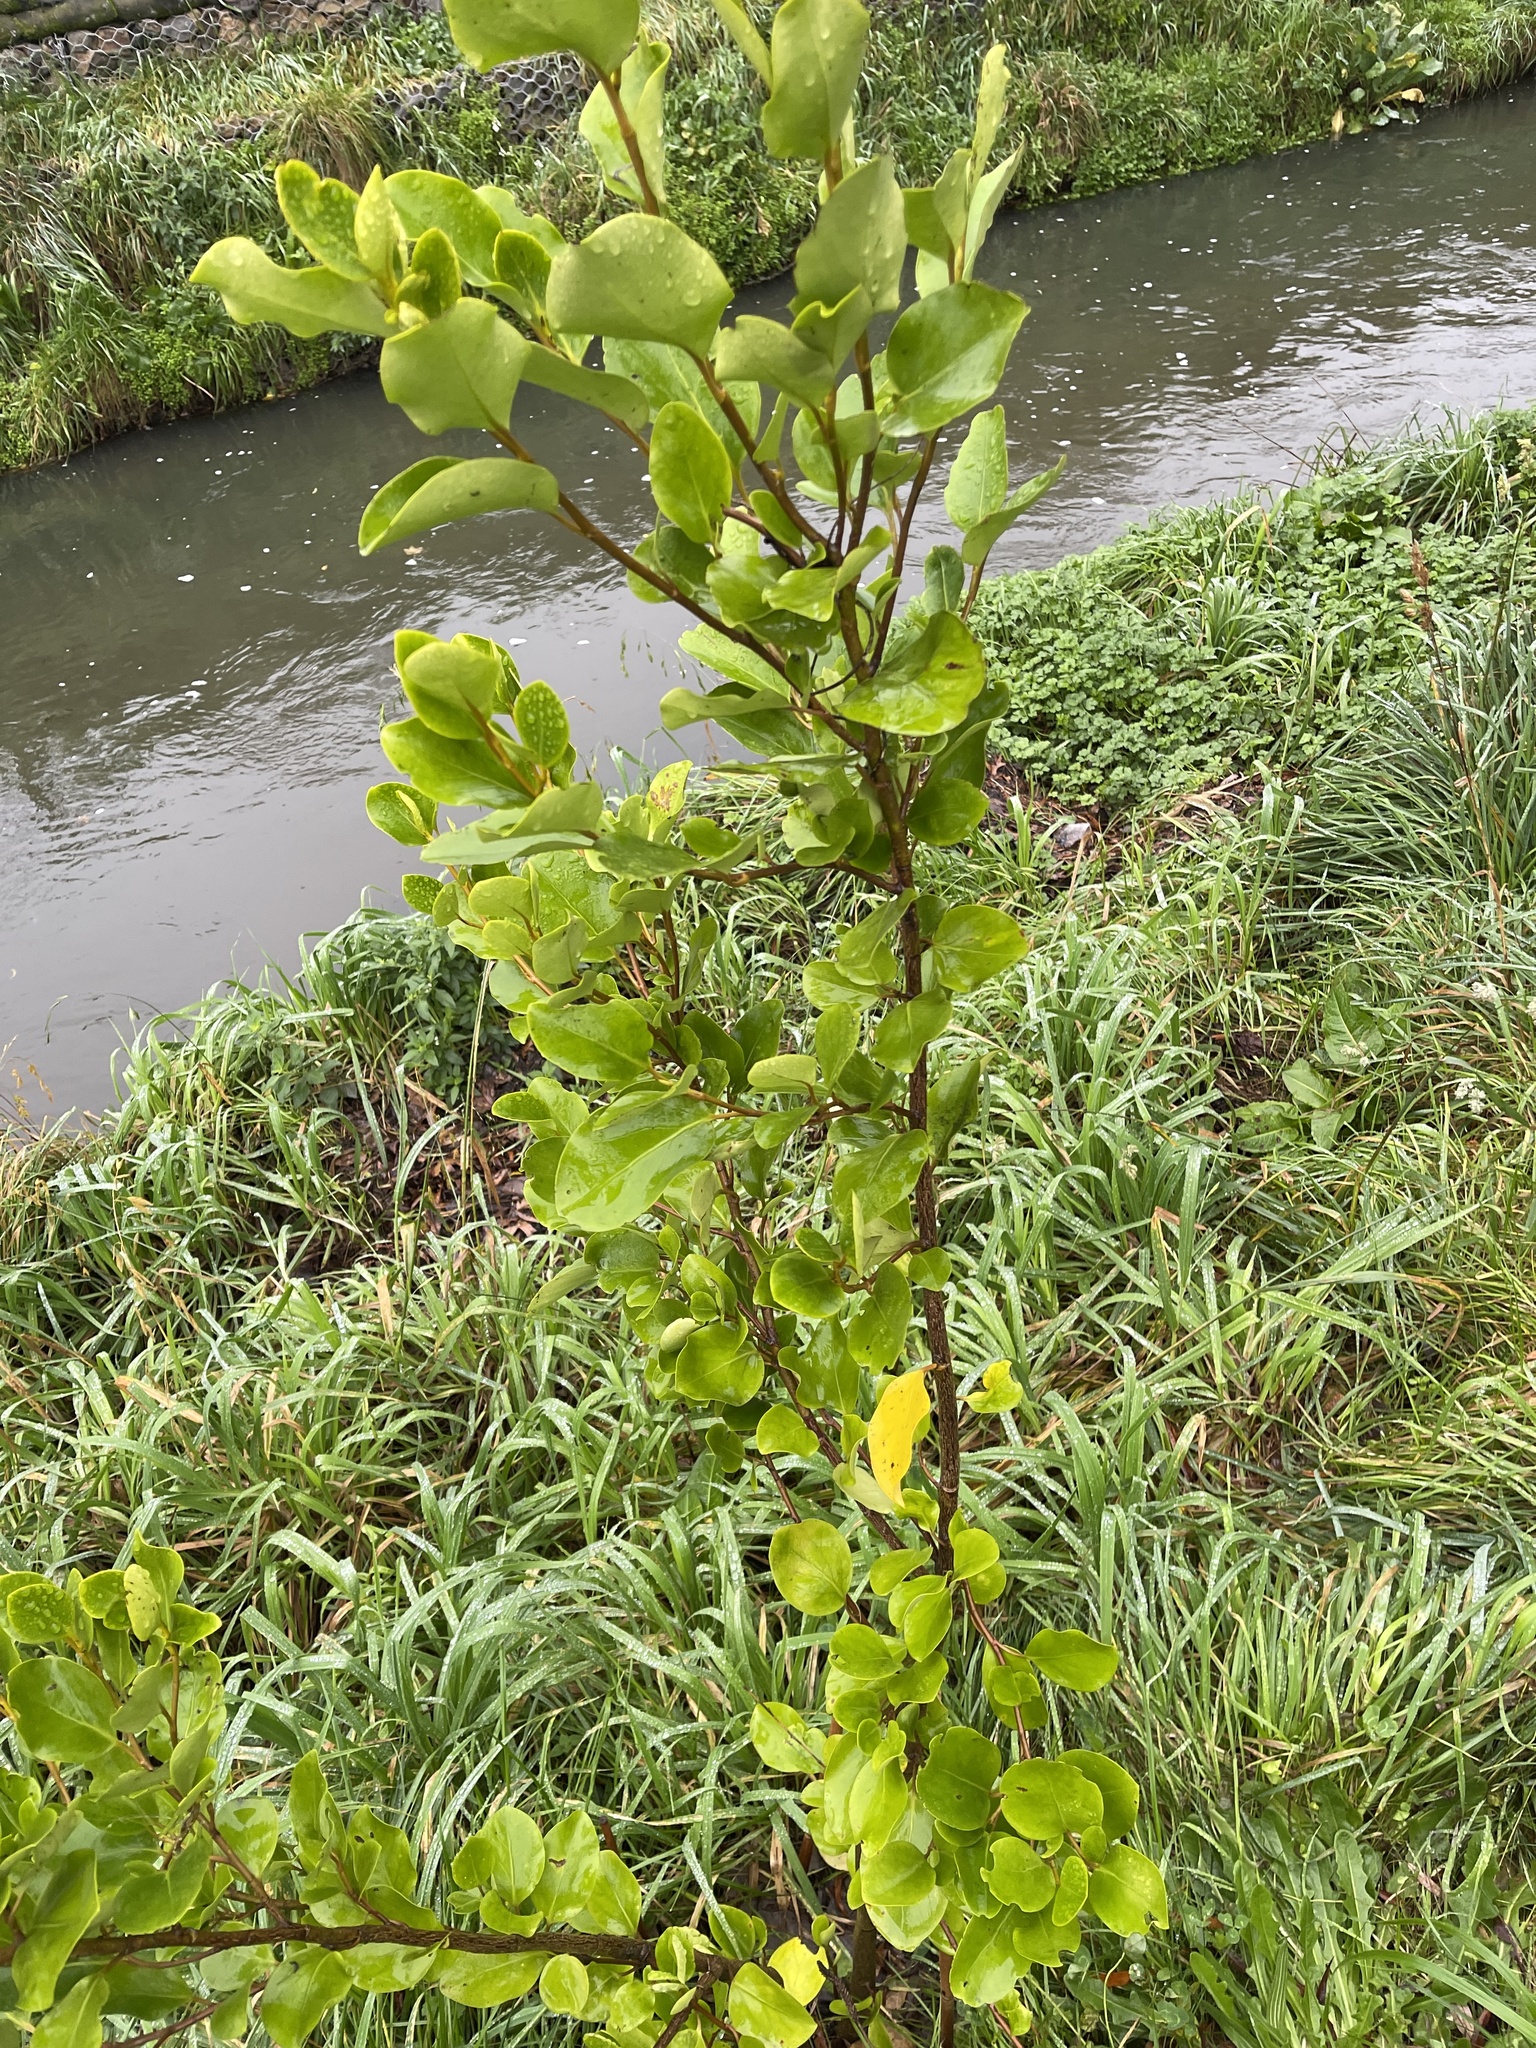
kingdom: Plantae
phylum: Tracheophyta
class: Magnoliopsida
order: Apiales
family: Griseliniaceae
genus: Griselinia
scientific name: Griselinia littoralis
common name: New zealand broadleaf
